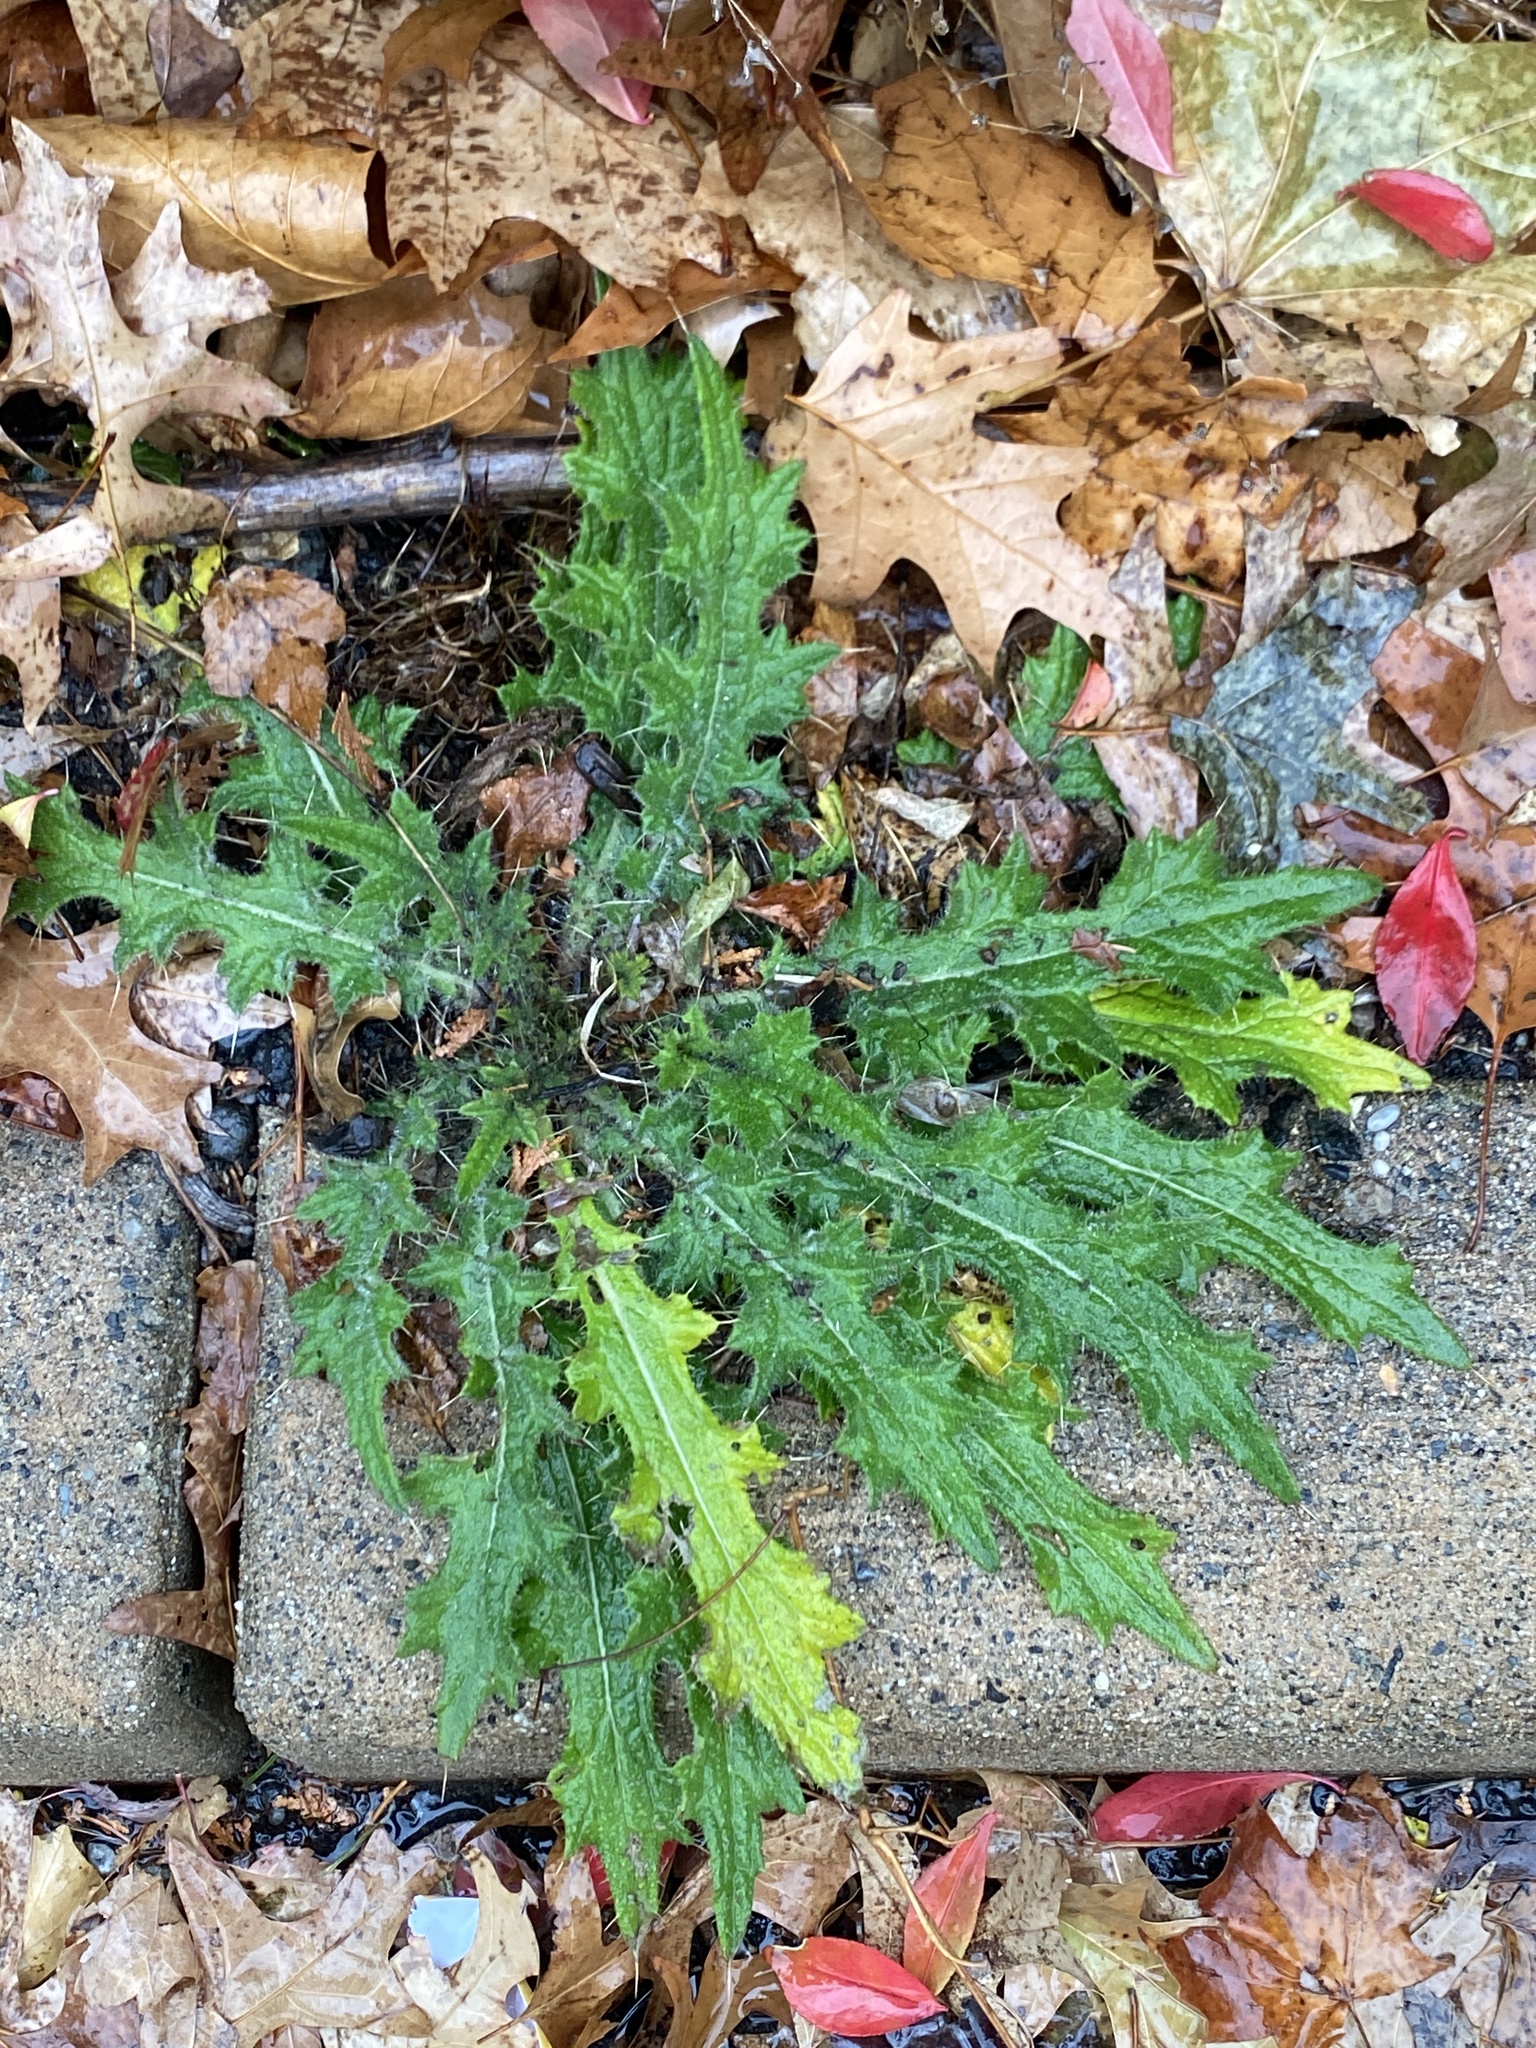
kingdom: Plantae
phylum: Tracheophyta
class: Magnoliopsida
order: Asterales
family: Asteraceae
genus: Cirsium
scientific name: Cirsium vulgare
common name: Bull thistle
